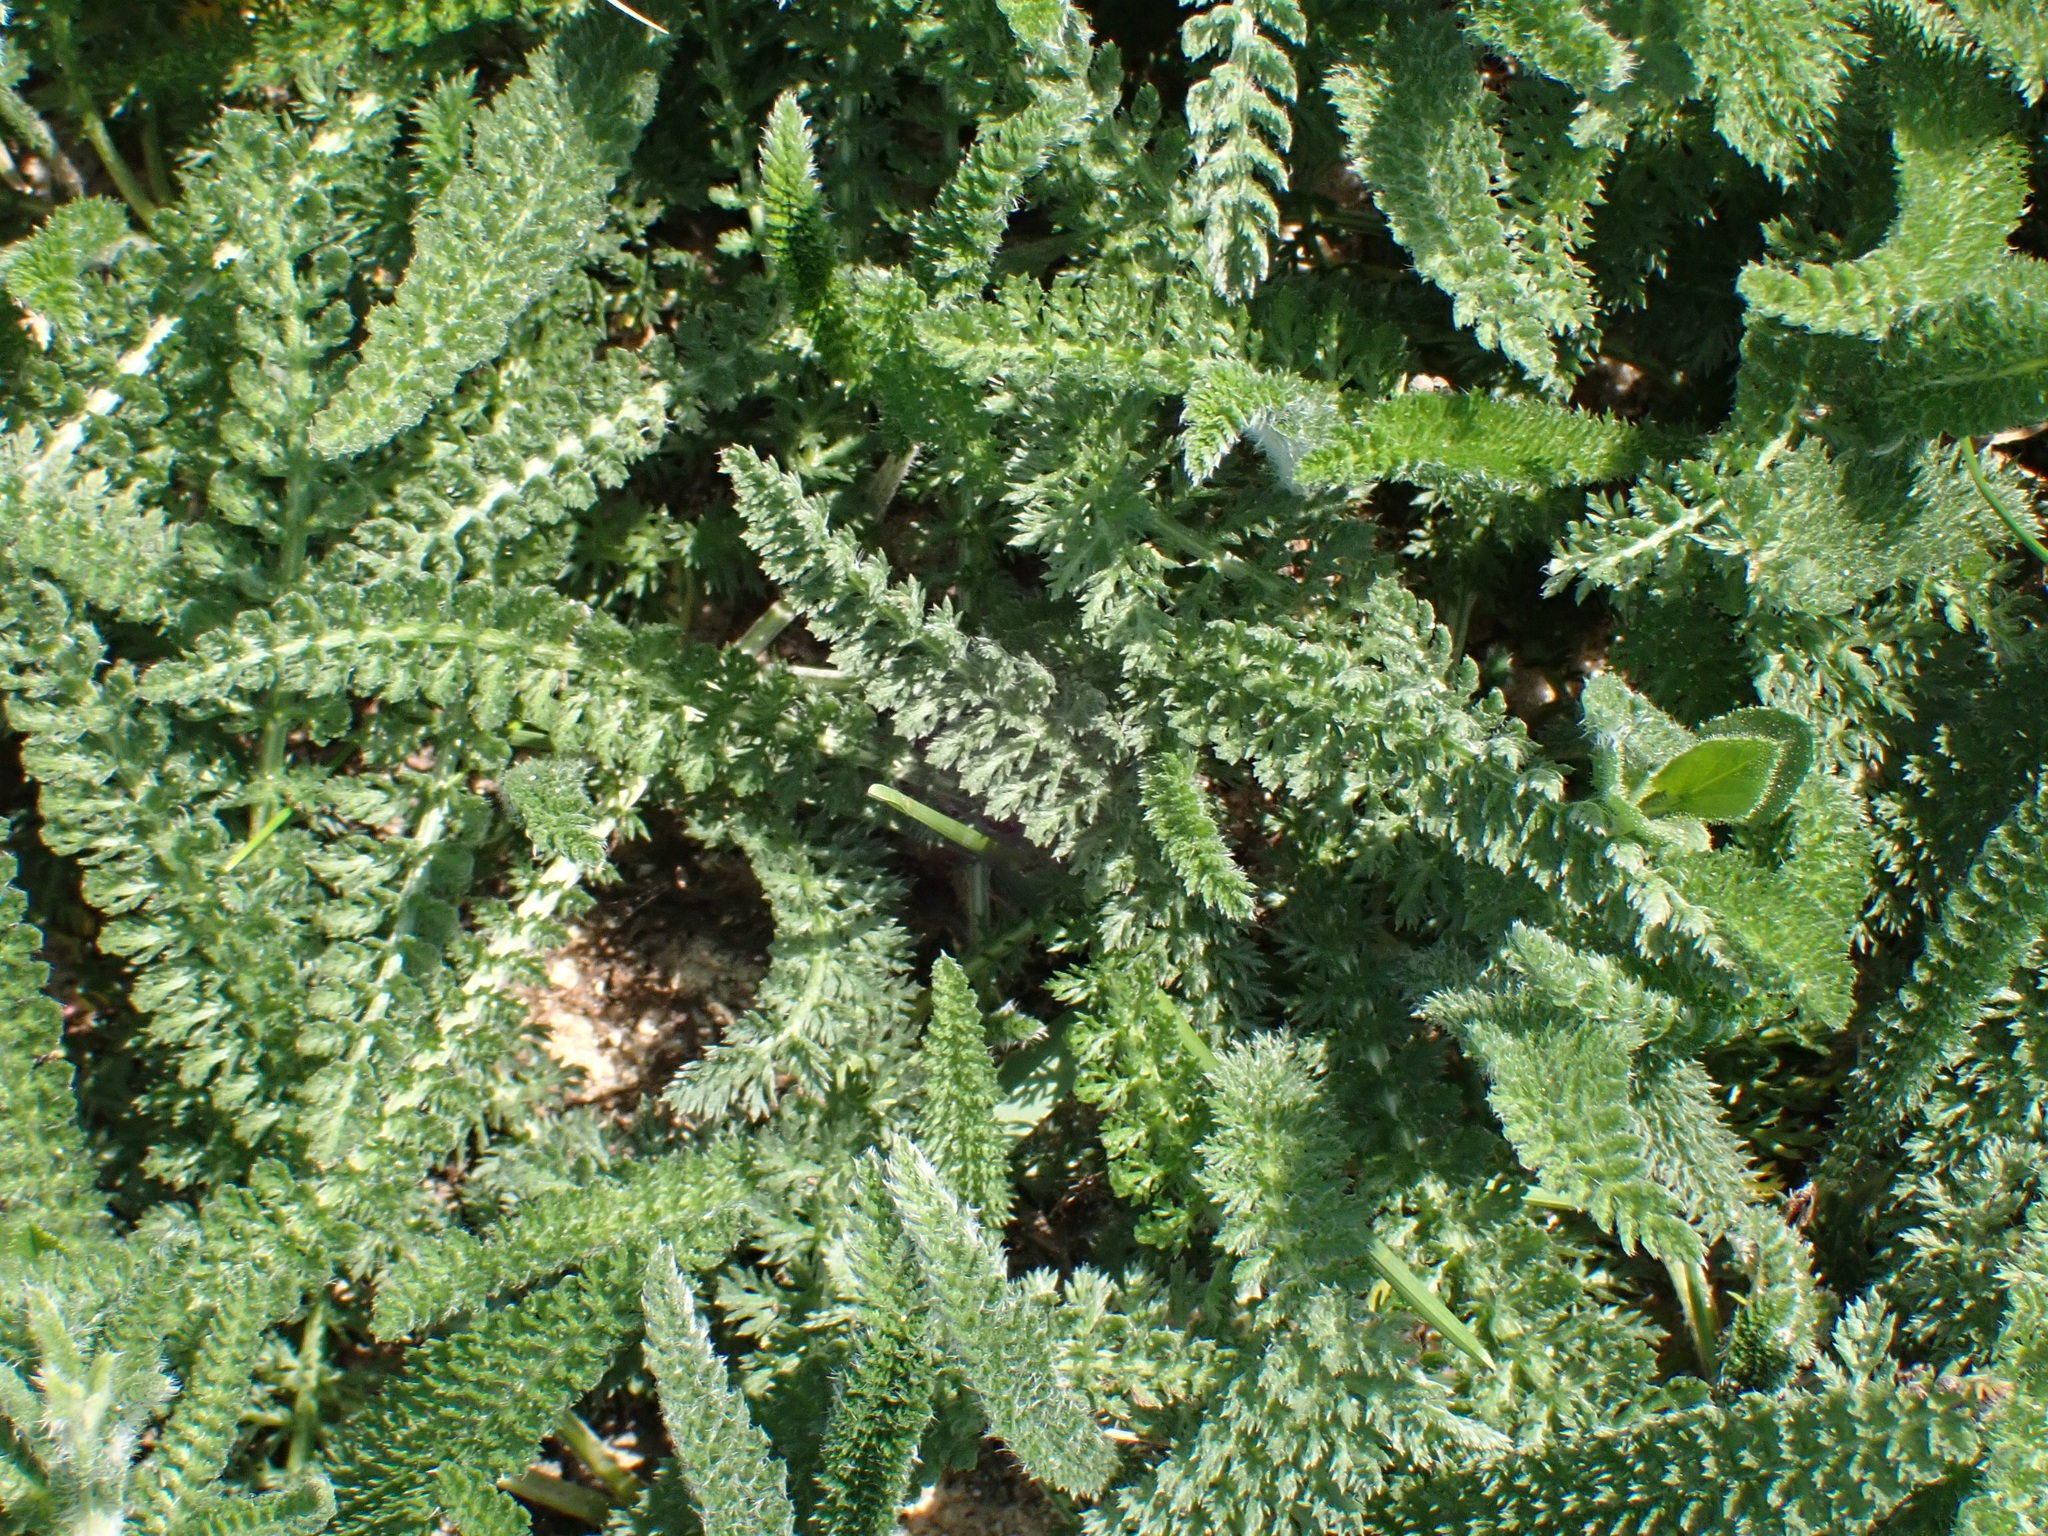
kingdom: Plantae
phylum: Tracheophyta
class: Magnoliopsida
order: Asterales
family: Asteraceae
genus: Achillea
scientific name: Achillea millefolium
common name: Yarrow
